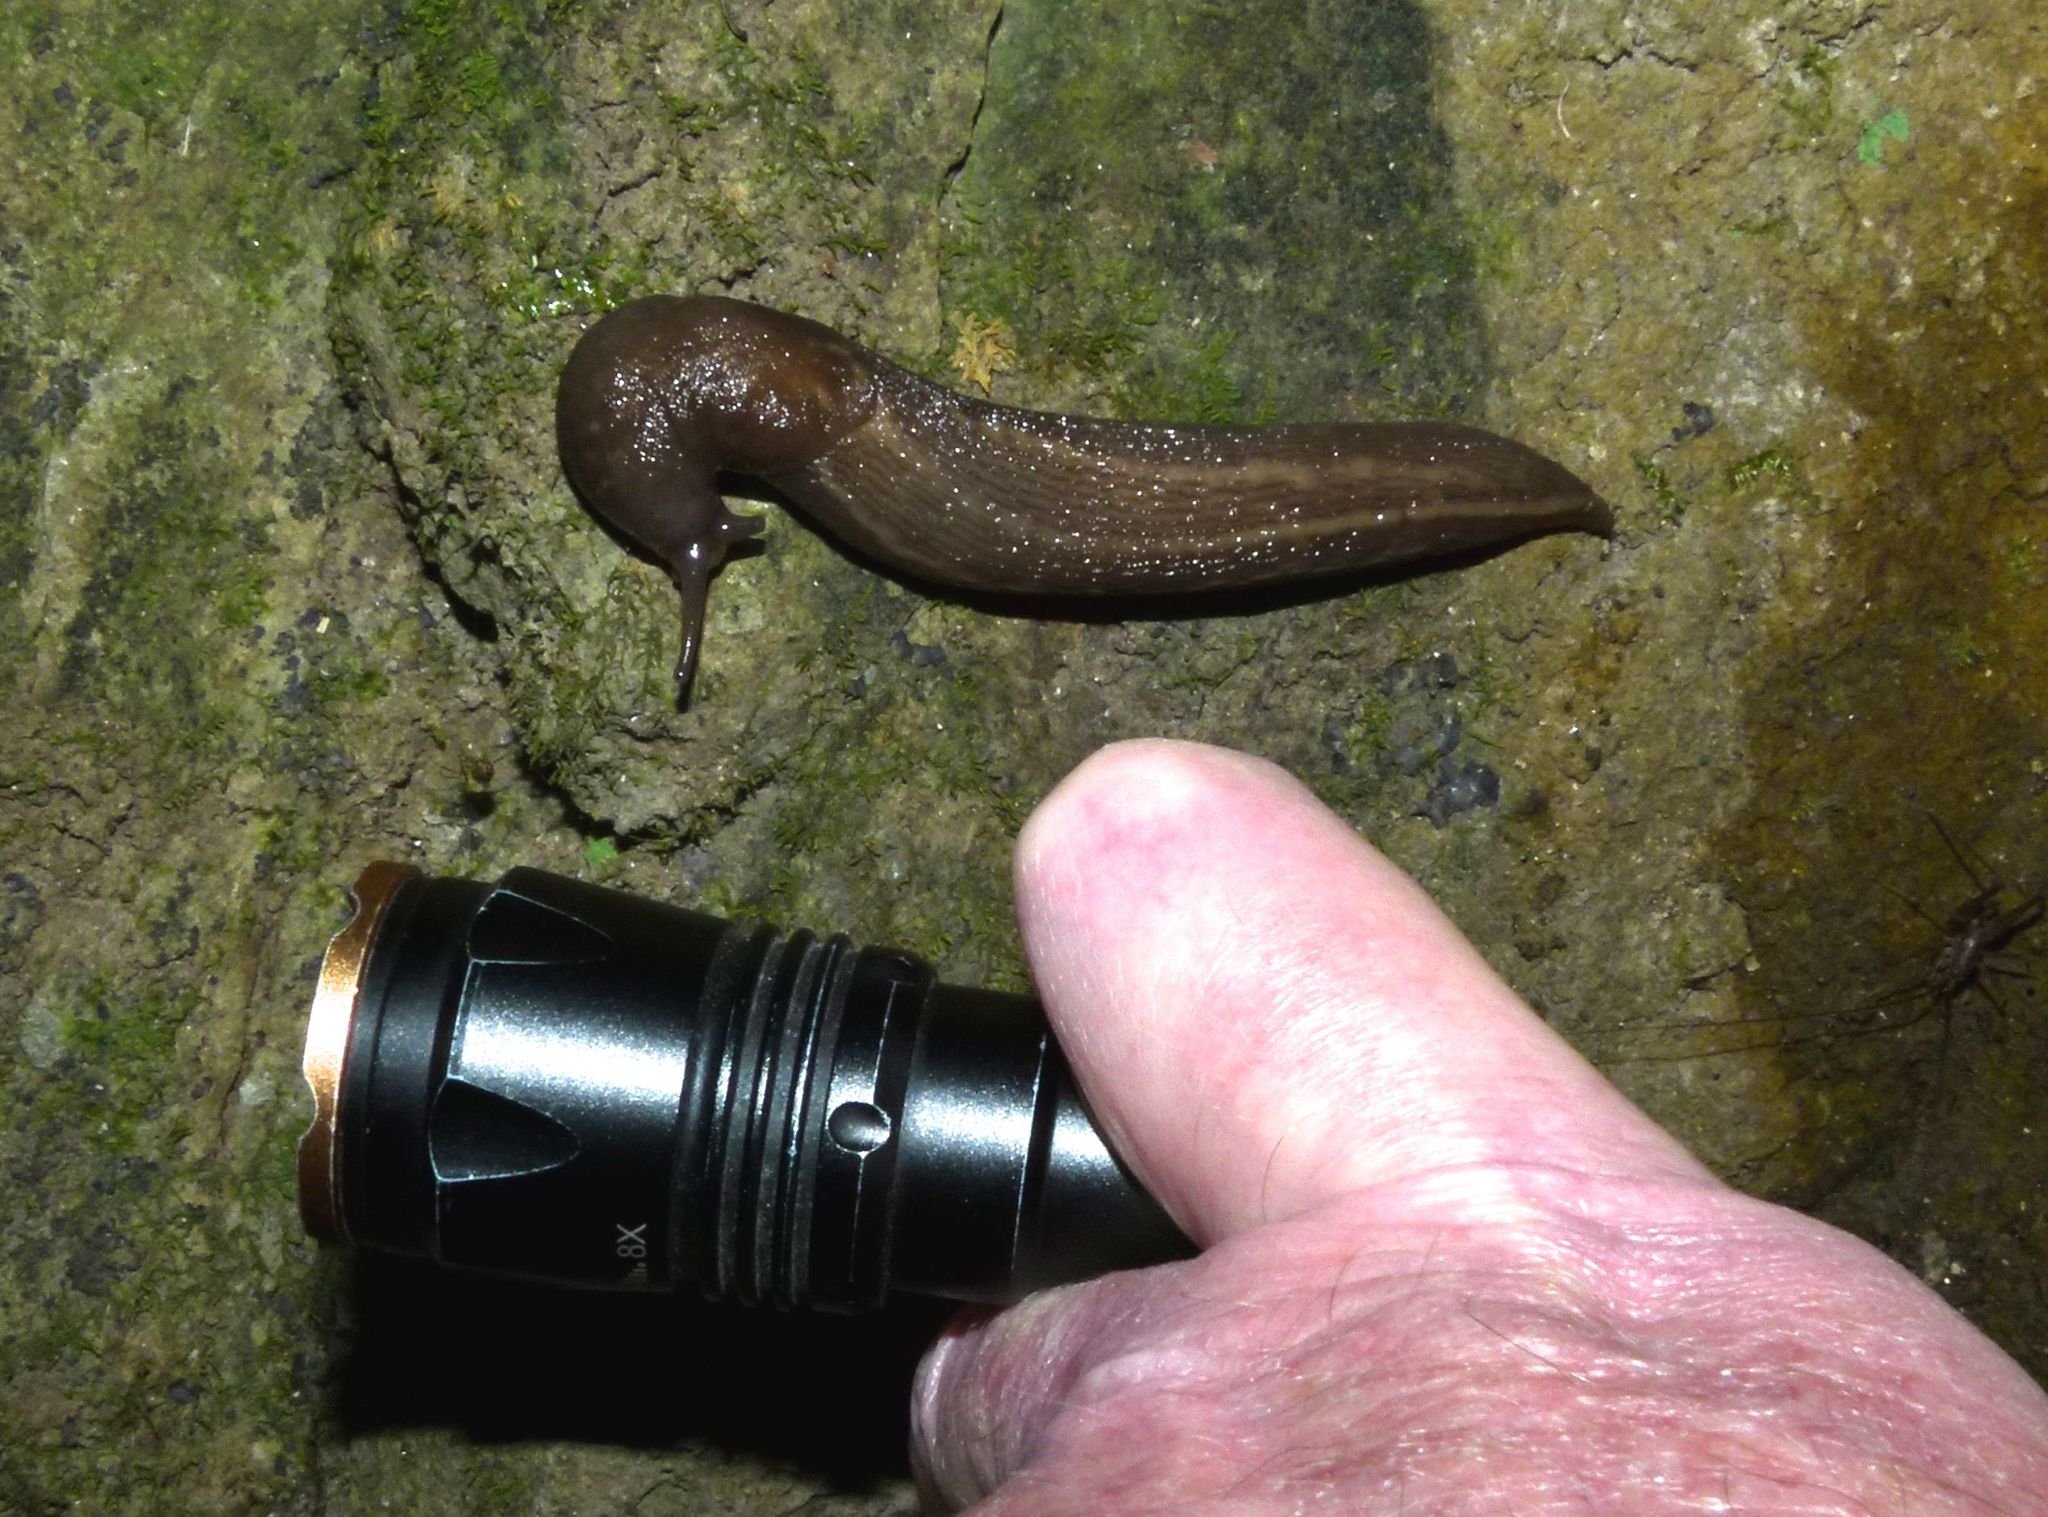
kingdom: Animalia
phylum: Mollusca
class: Gastropoda
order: Stylommatophora
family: Limacidae
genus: Limax
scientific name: Limax maximus
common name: Great grey slug
